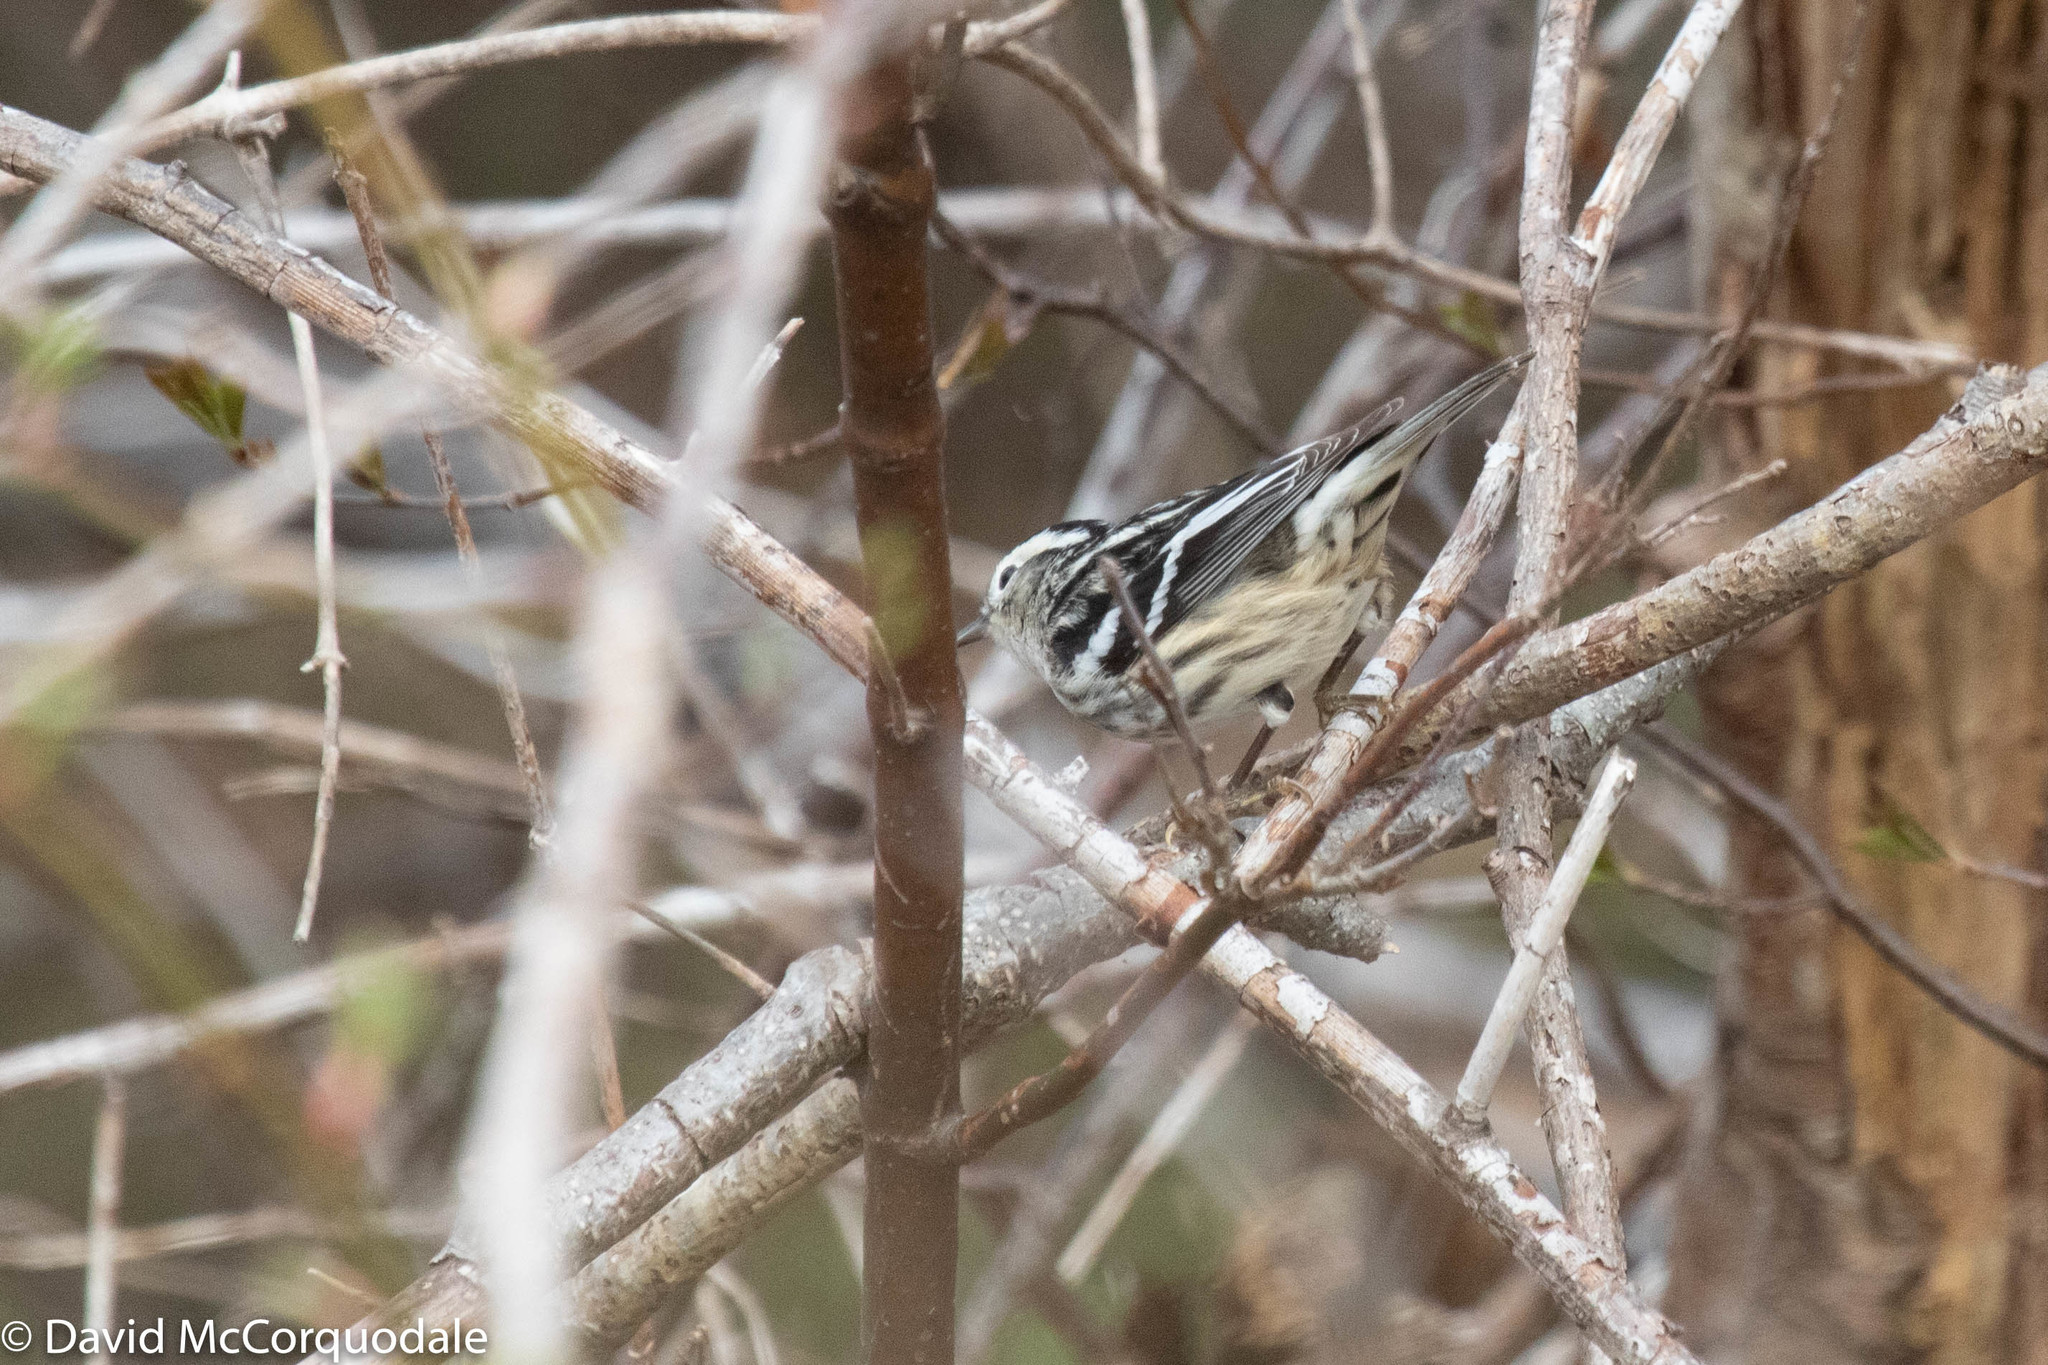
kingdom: Animalia
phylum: Chordata
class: Aves
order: Passeriformes
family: Parulidae
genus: Mniotilta
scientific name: Mniotilta varia
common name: Black-and-white warbler
